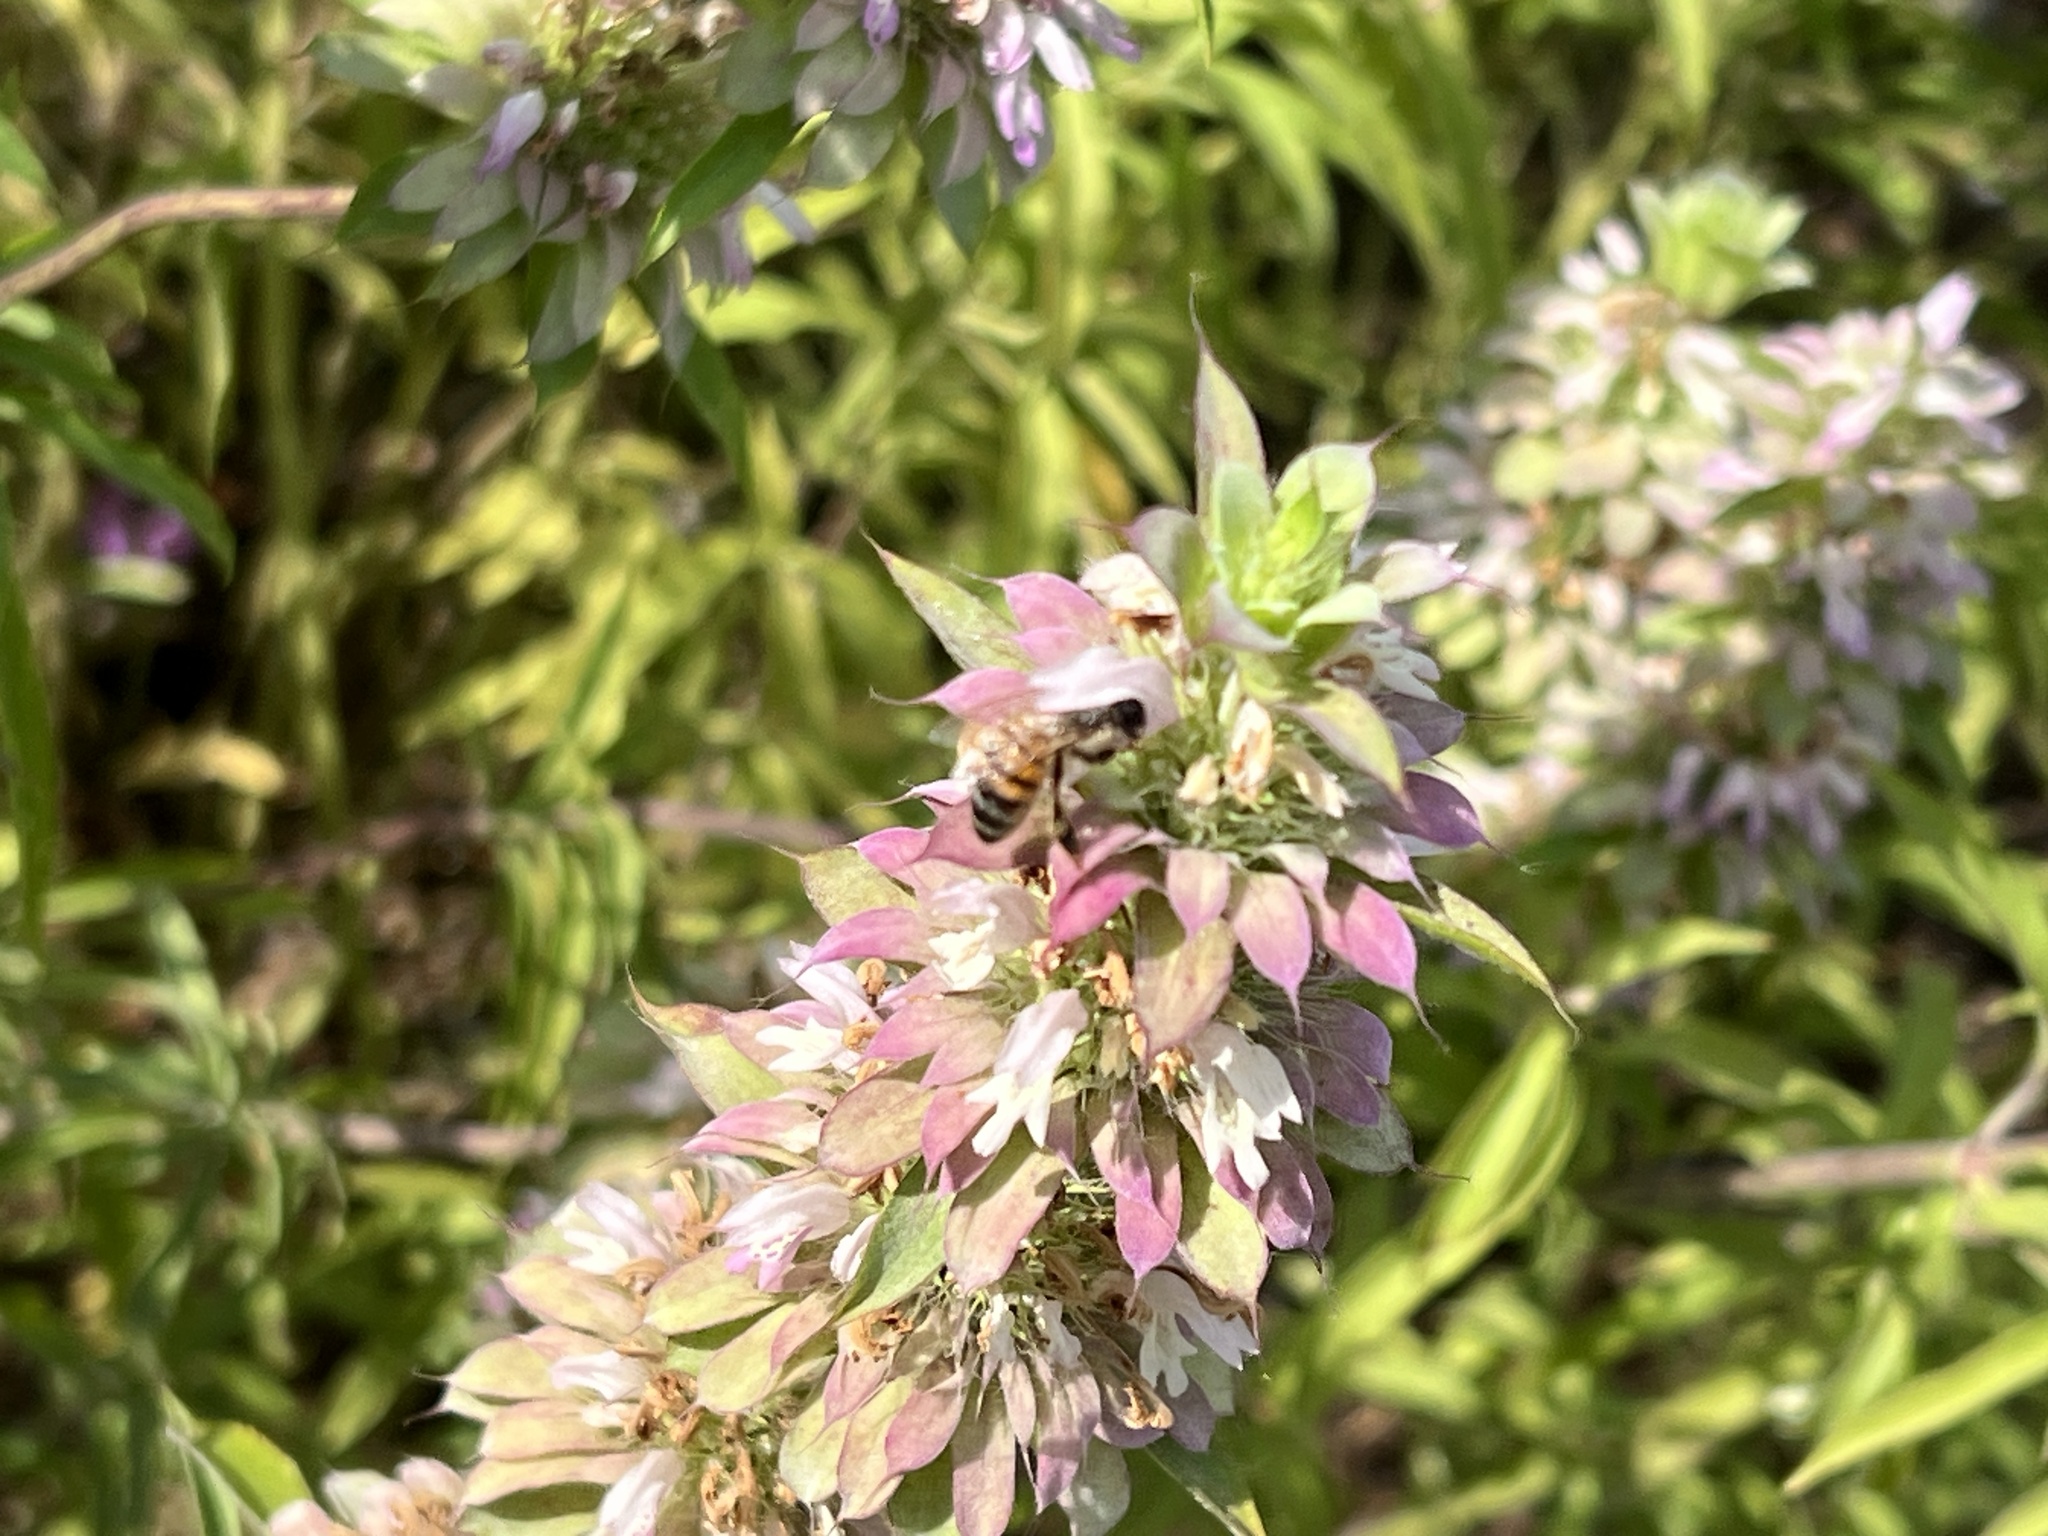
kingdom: Animalia
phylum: Arthropoda
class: Insecta
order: Hymenoptera
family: Apidae
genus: Apis
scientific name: Apis mellifera
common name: Honey bee
